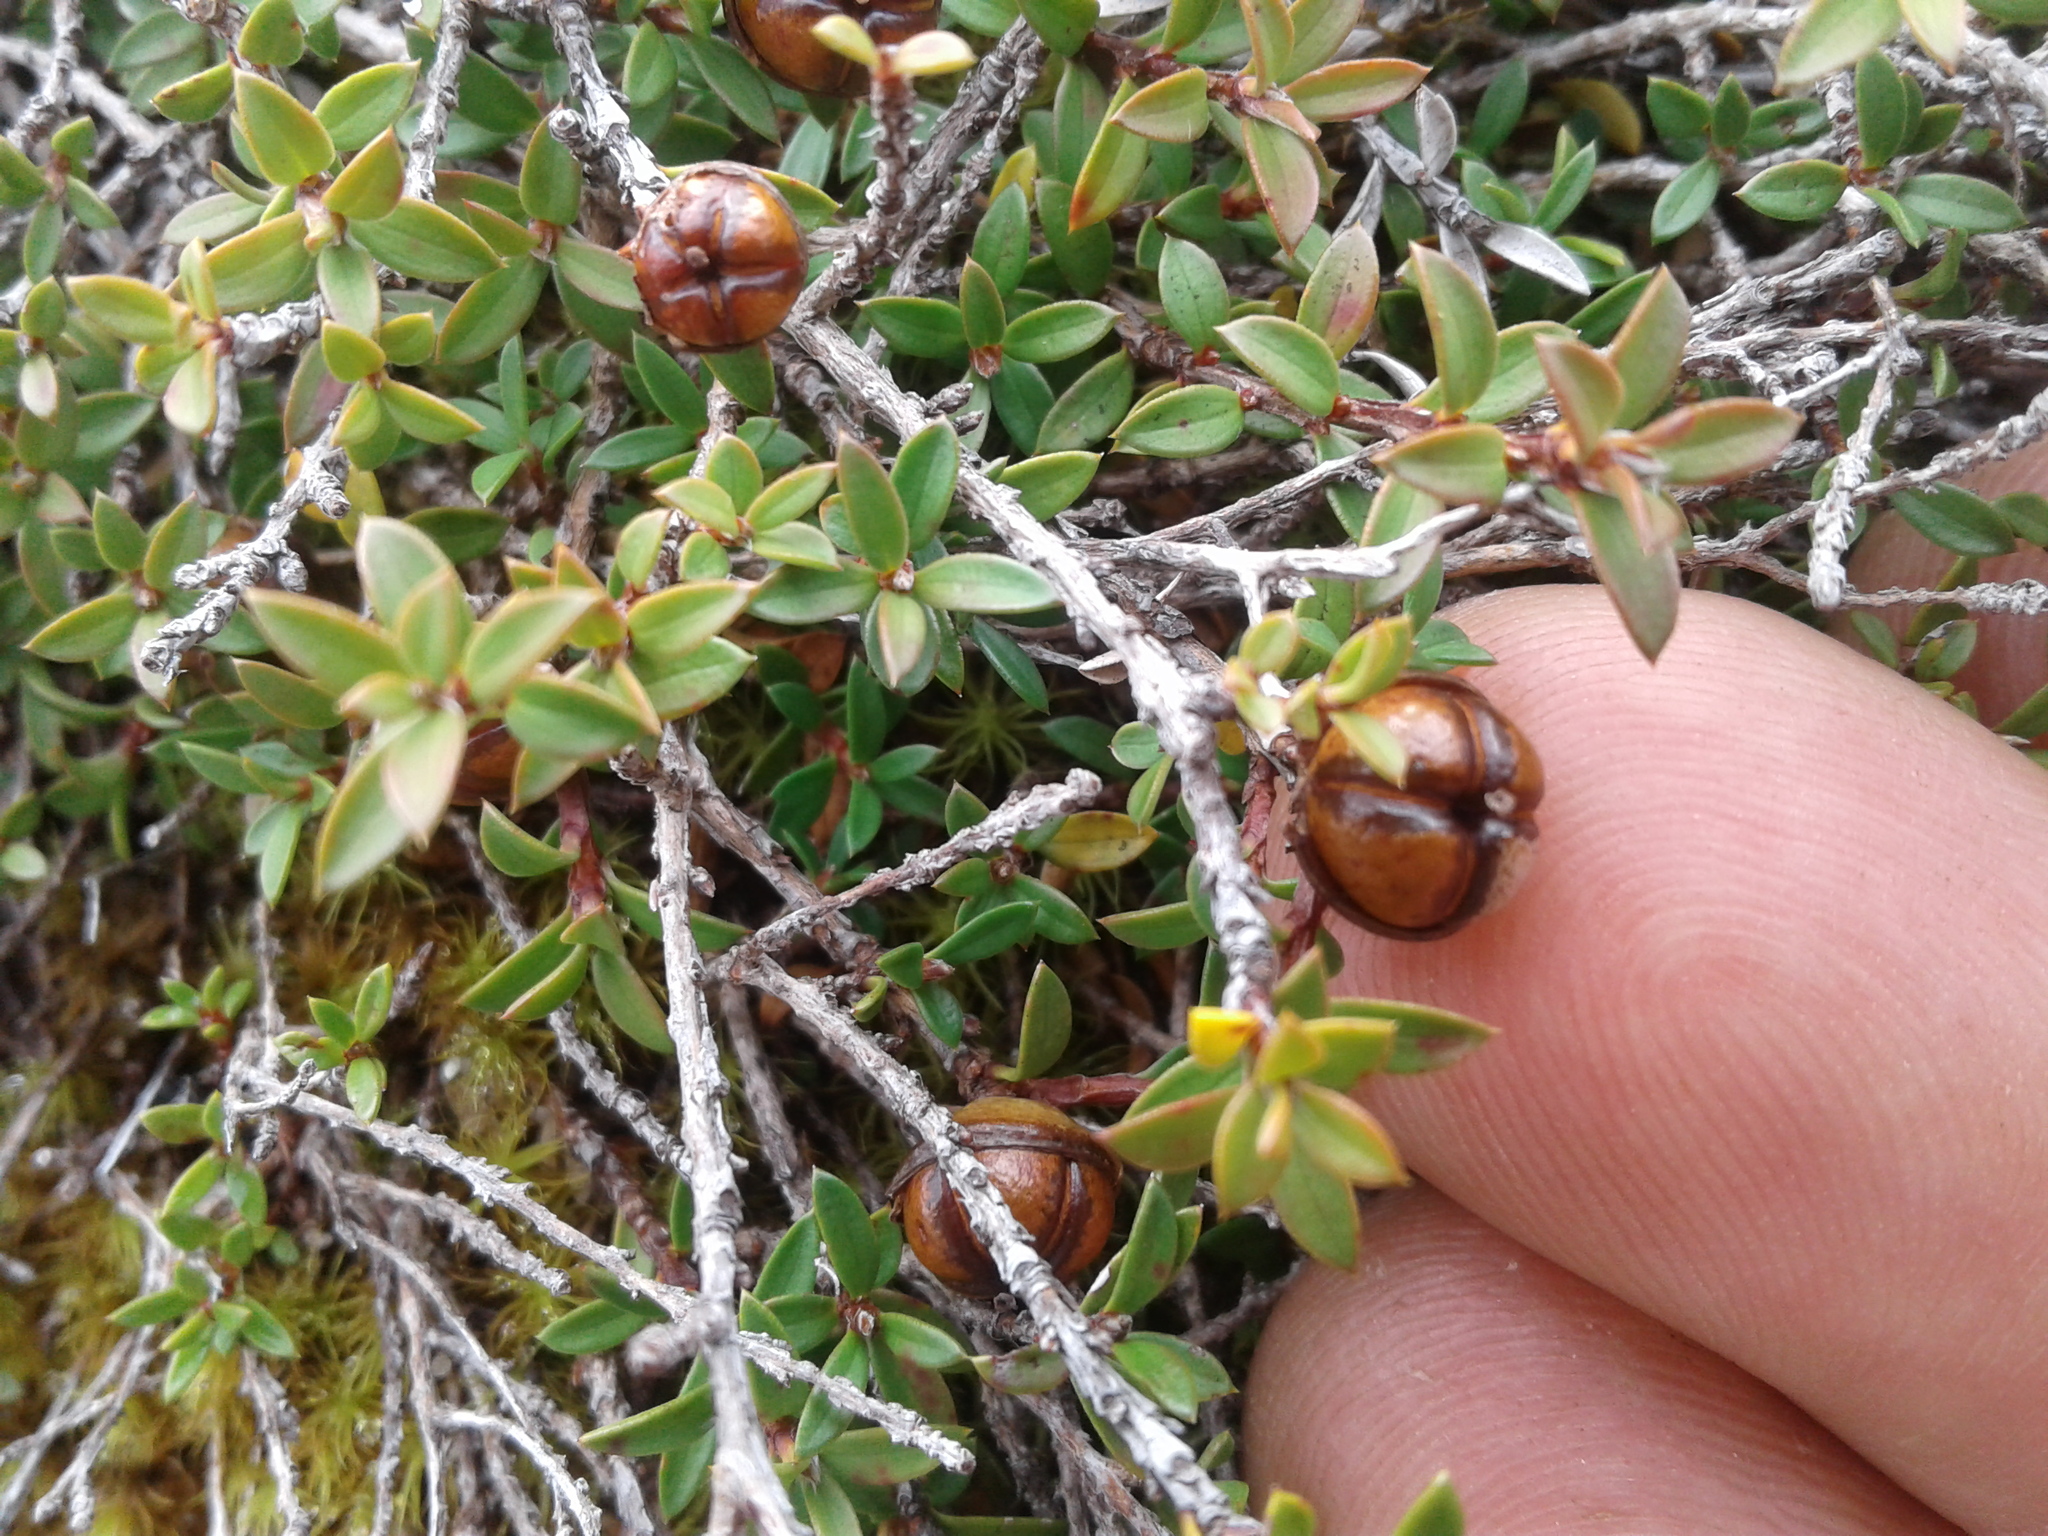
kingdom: Plantae
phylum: Tracheophyta
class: Magnoliopsida
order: Myrtales
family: Myrtaceae
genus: Leptospermum
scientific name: Leptospermum scoparium
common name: Broom tea-tree
